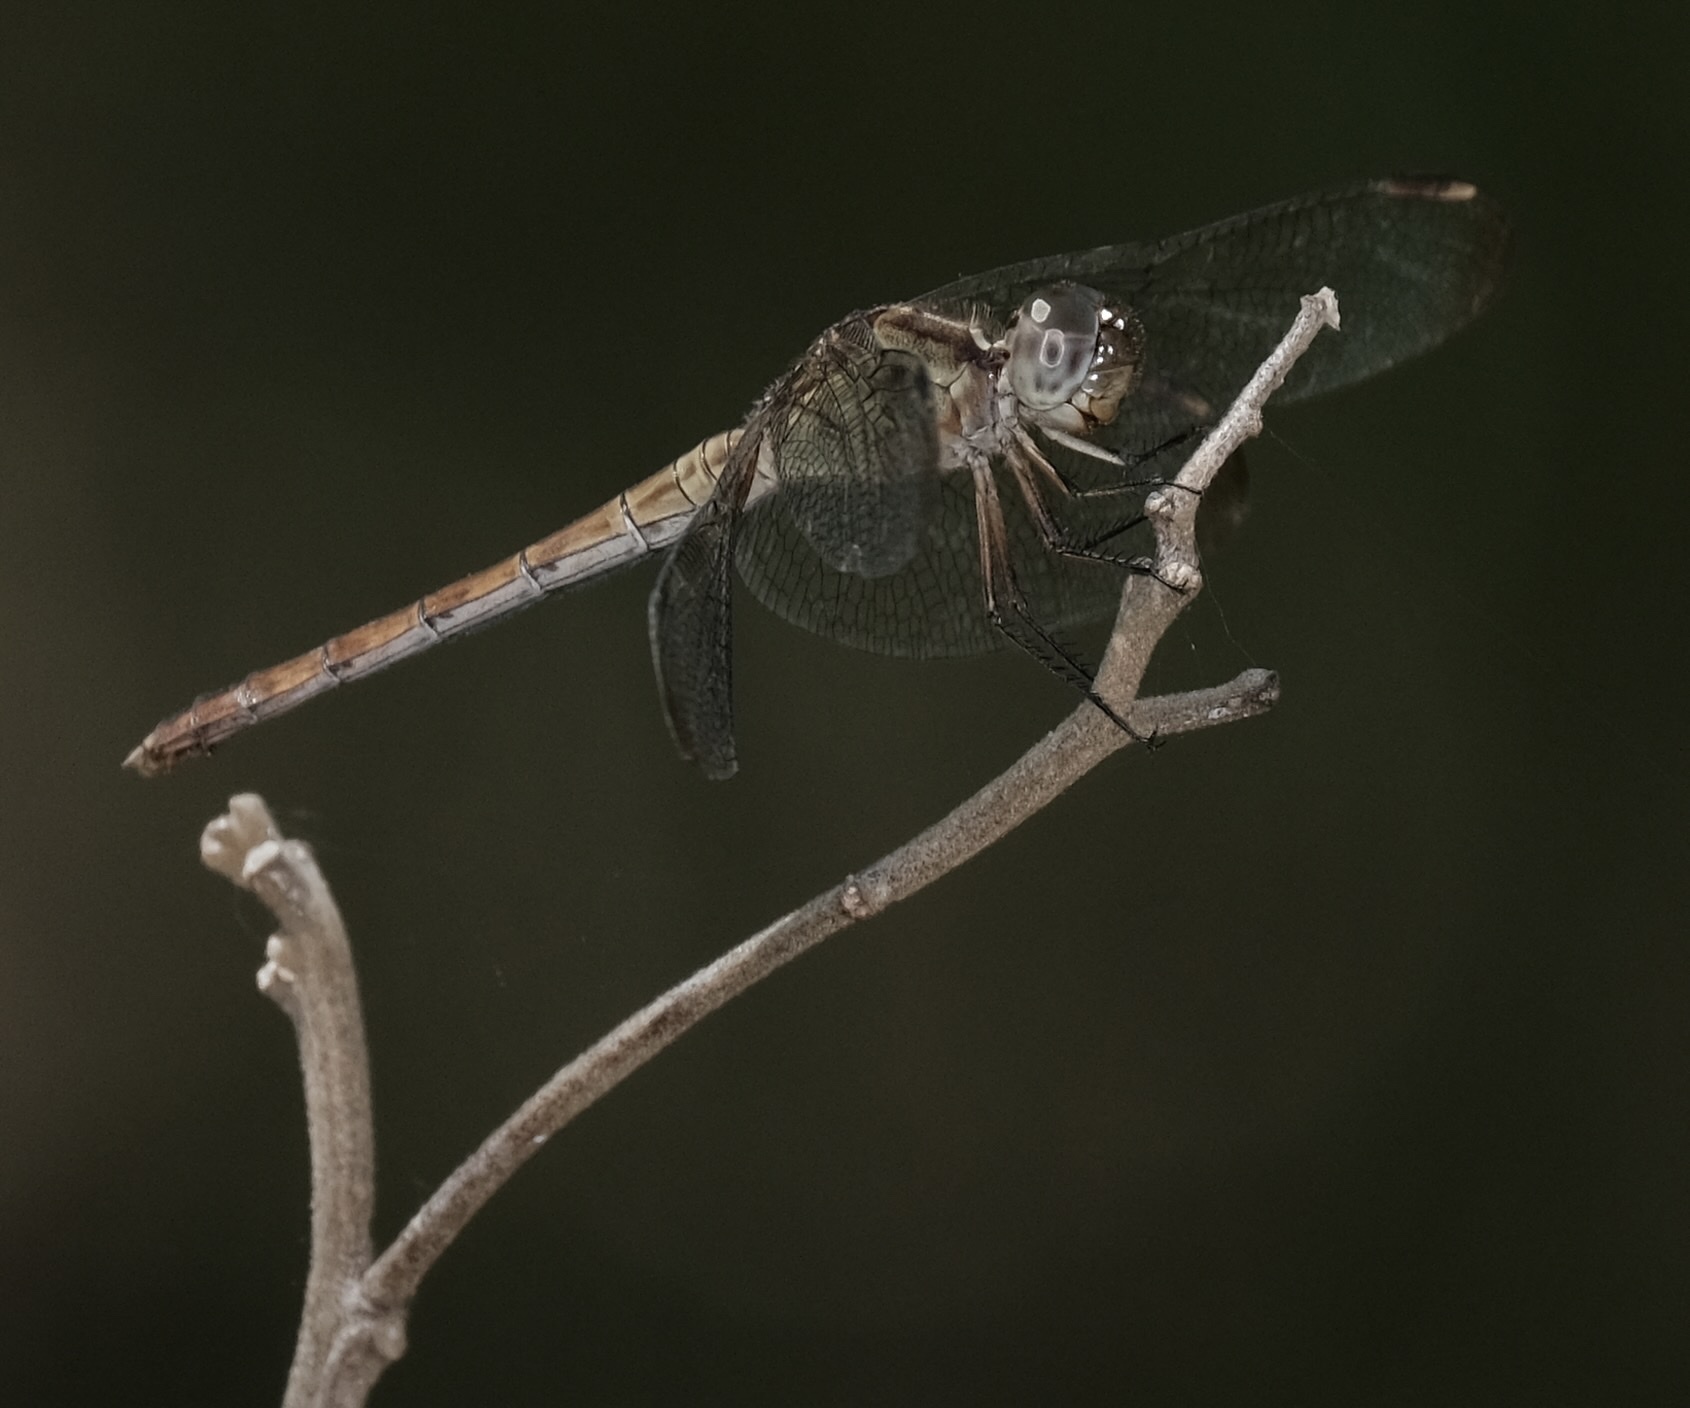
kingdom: Animalia
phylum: Arthropoda
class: Insecta
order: Odonata
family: Libellulidae
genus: Erythrodiplax
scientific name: Erythrodiplax umbrata
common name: Band-winged dragonlet
